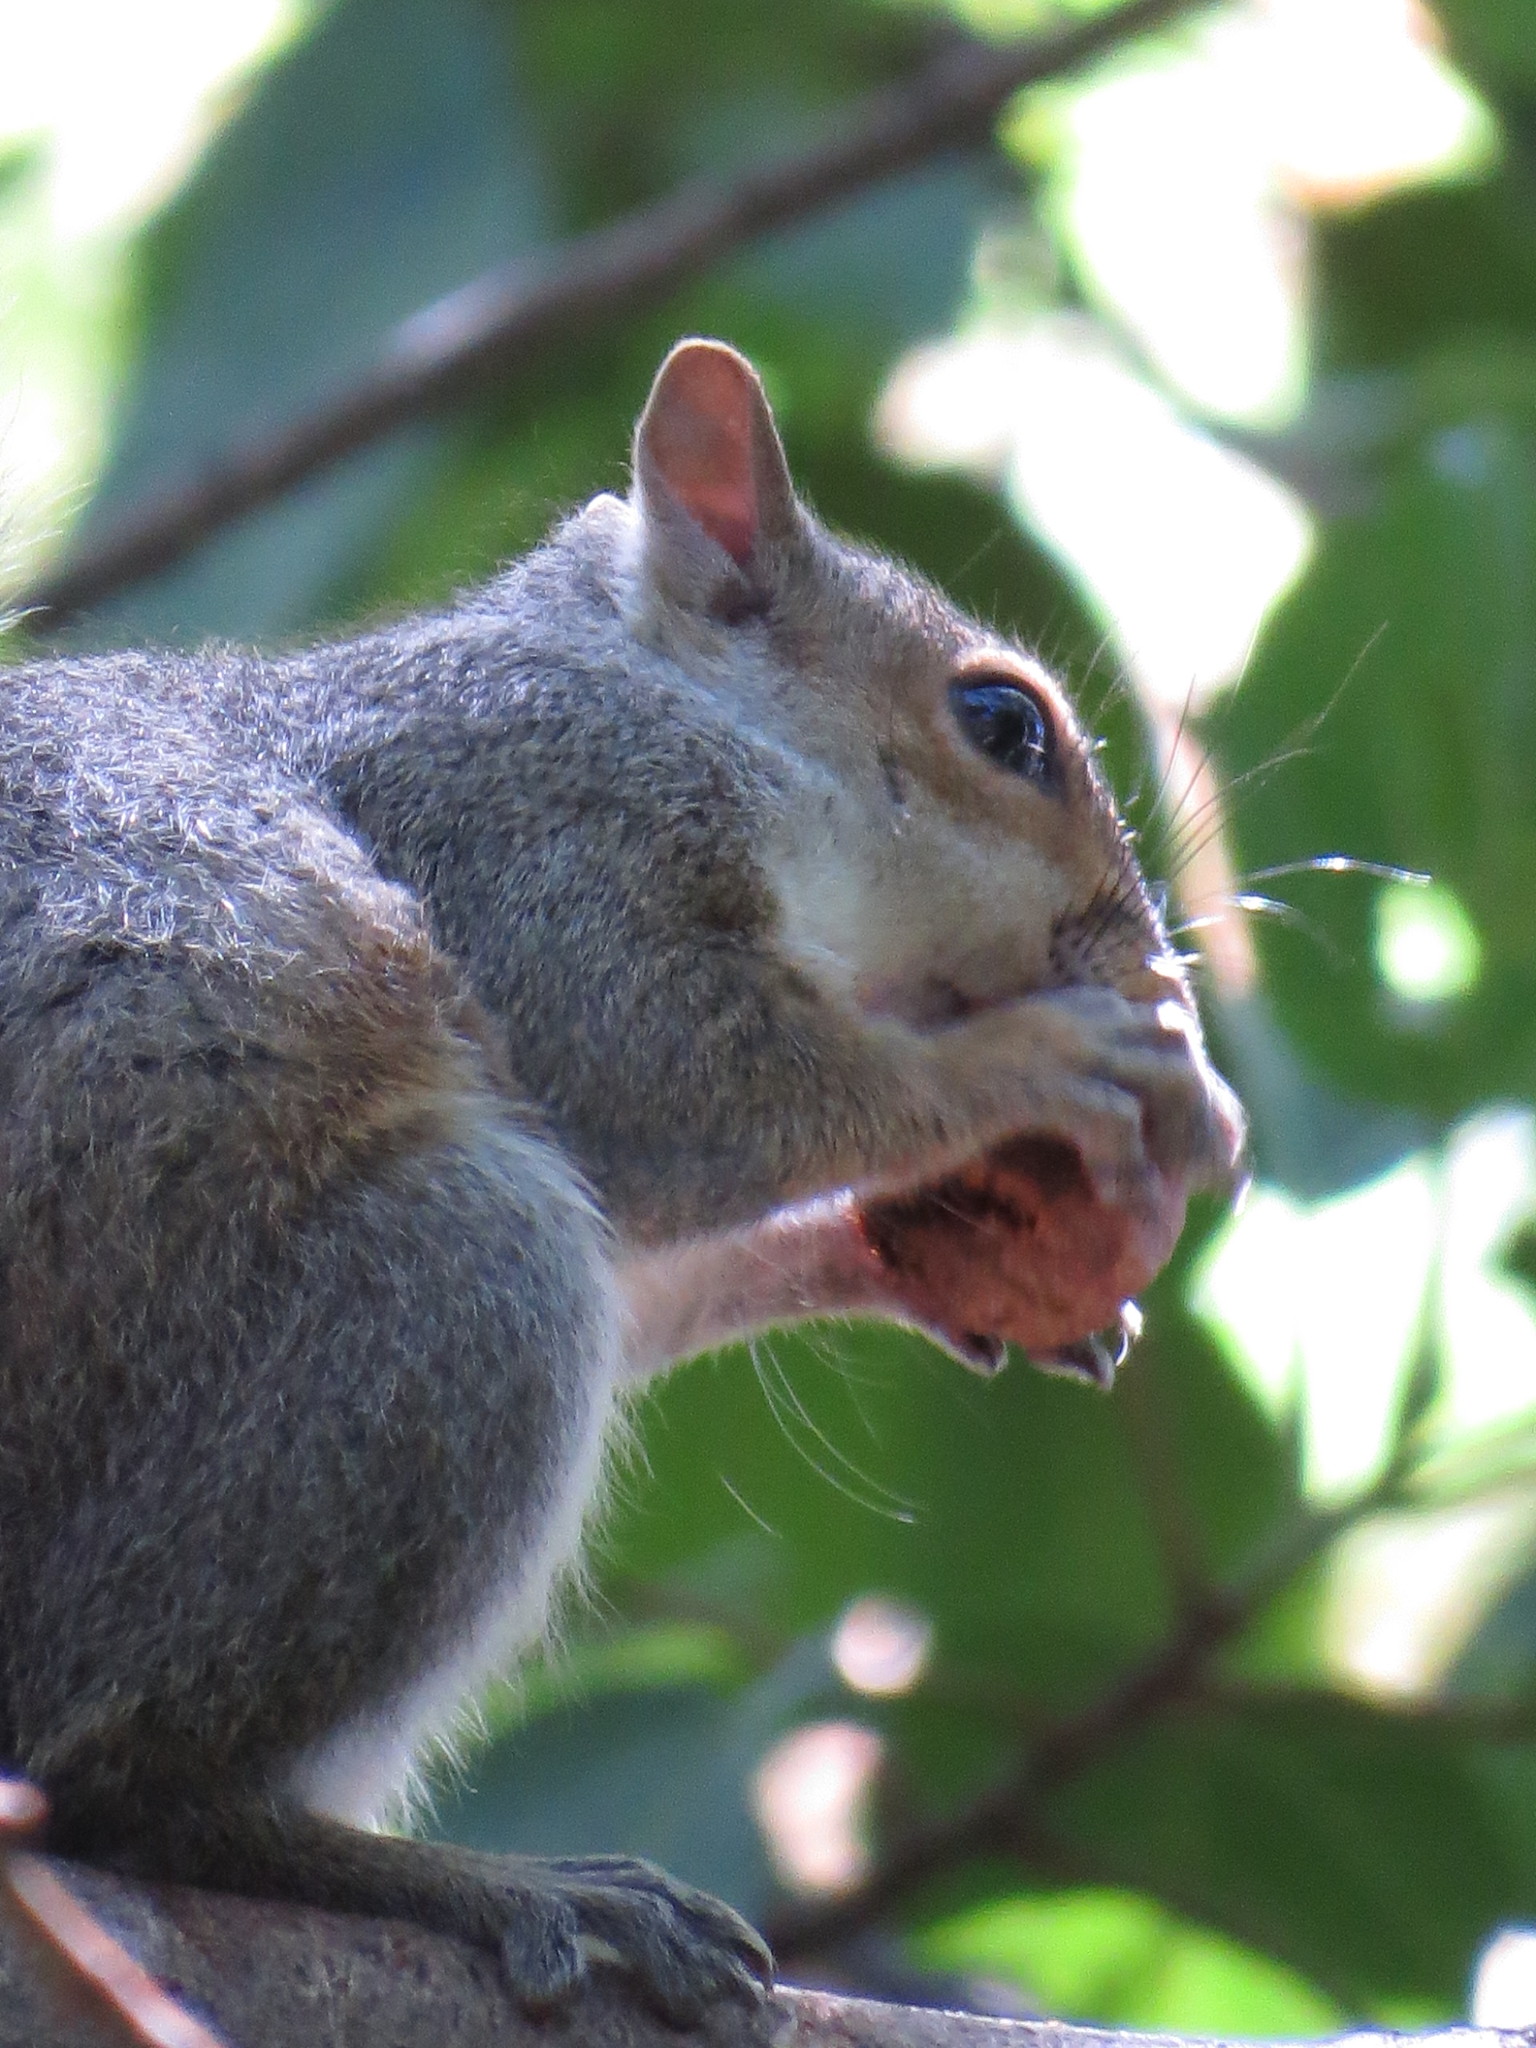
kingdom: Animalia
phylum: Chordata
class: Mammalia
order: Rodentia
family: Sciuridae
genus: Sciurus
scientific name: Sciurus carolinensis
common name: Eastern gray squirrel
